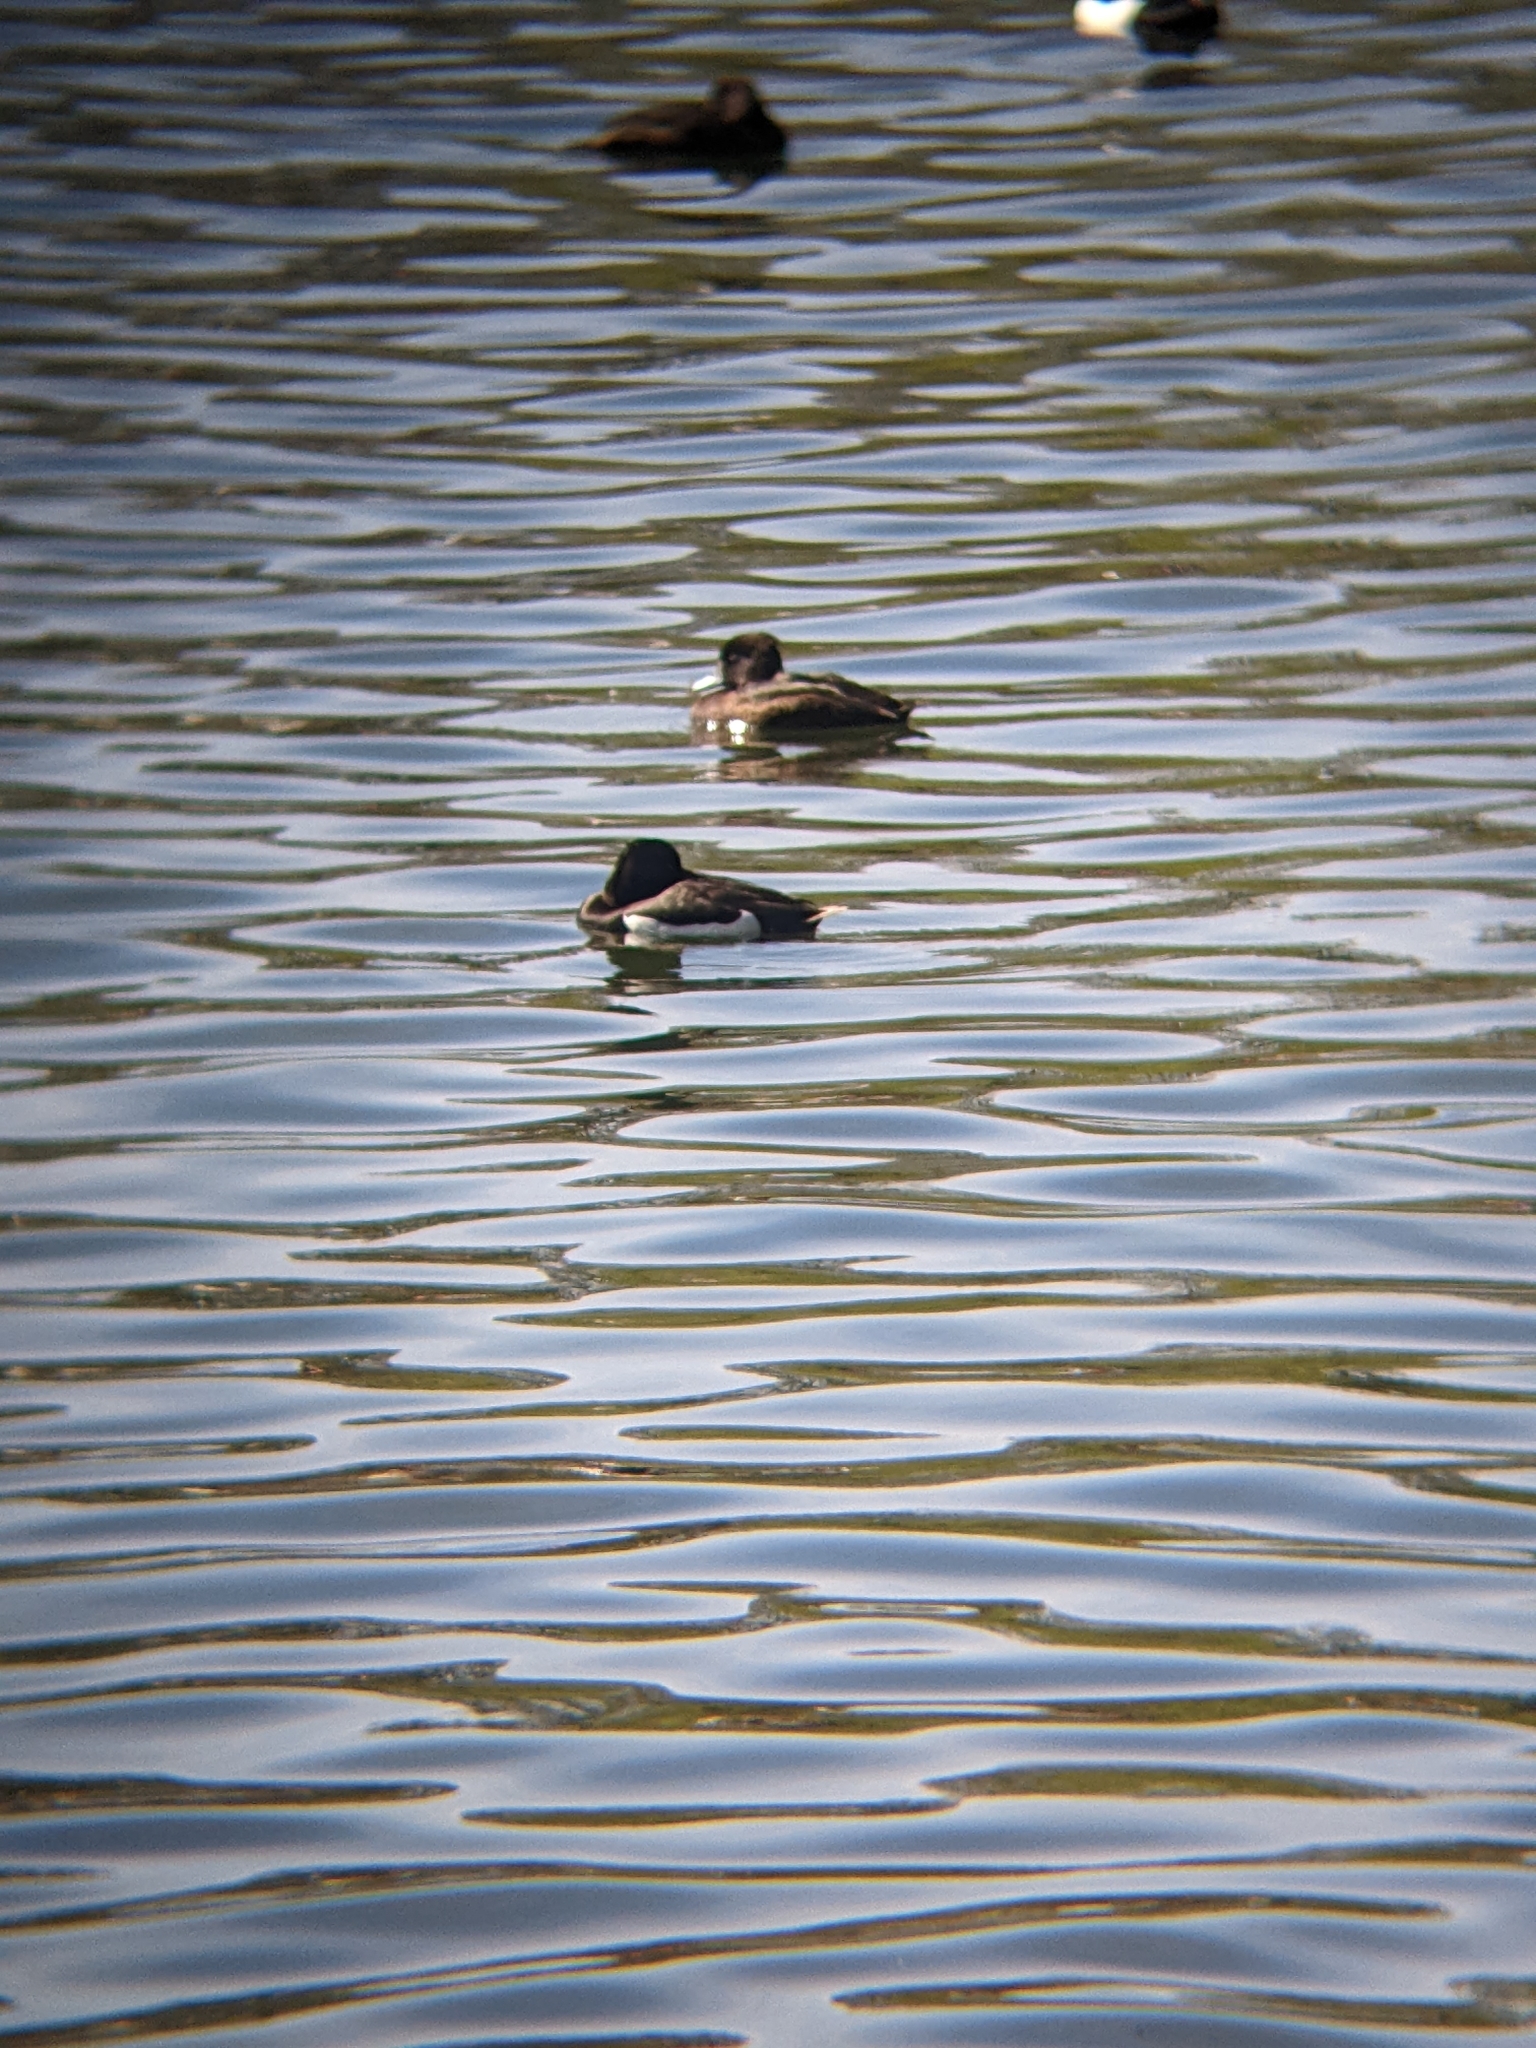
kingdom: Animalia
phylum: Chordata
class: Aves
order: Anseriformes
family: Anatidae
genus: Aythya
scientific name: Aythya fuligula
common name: Tufted duck
